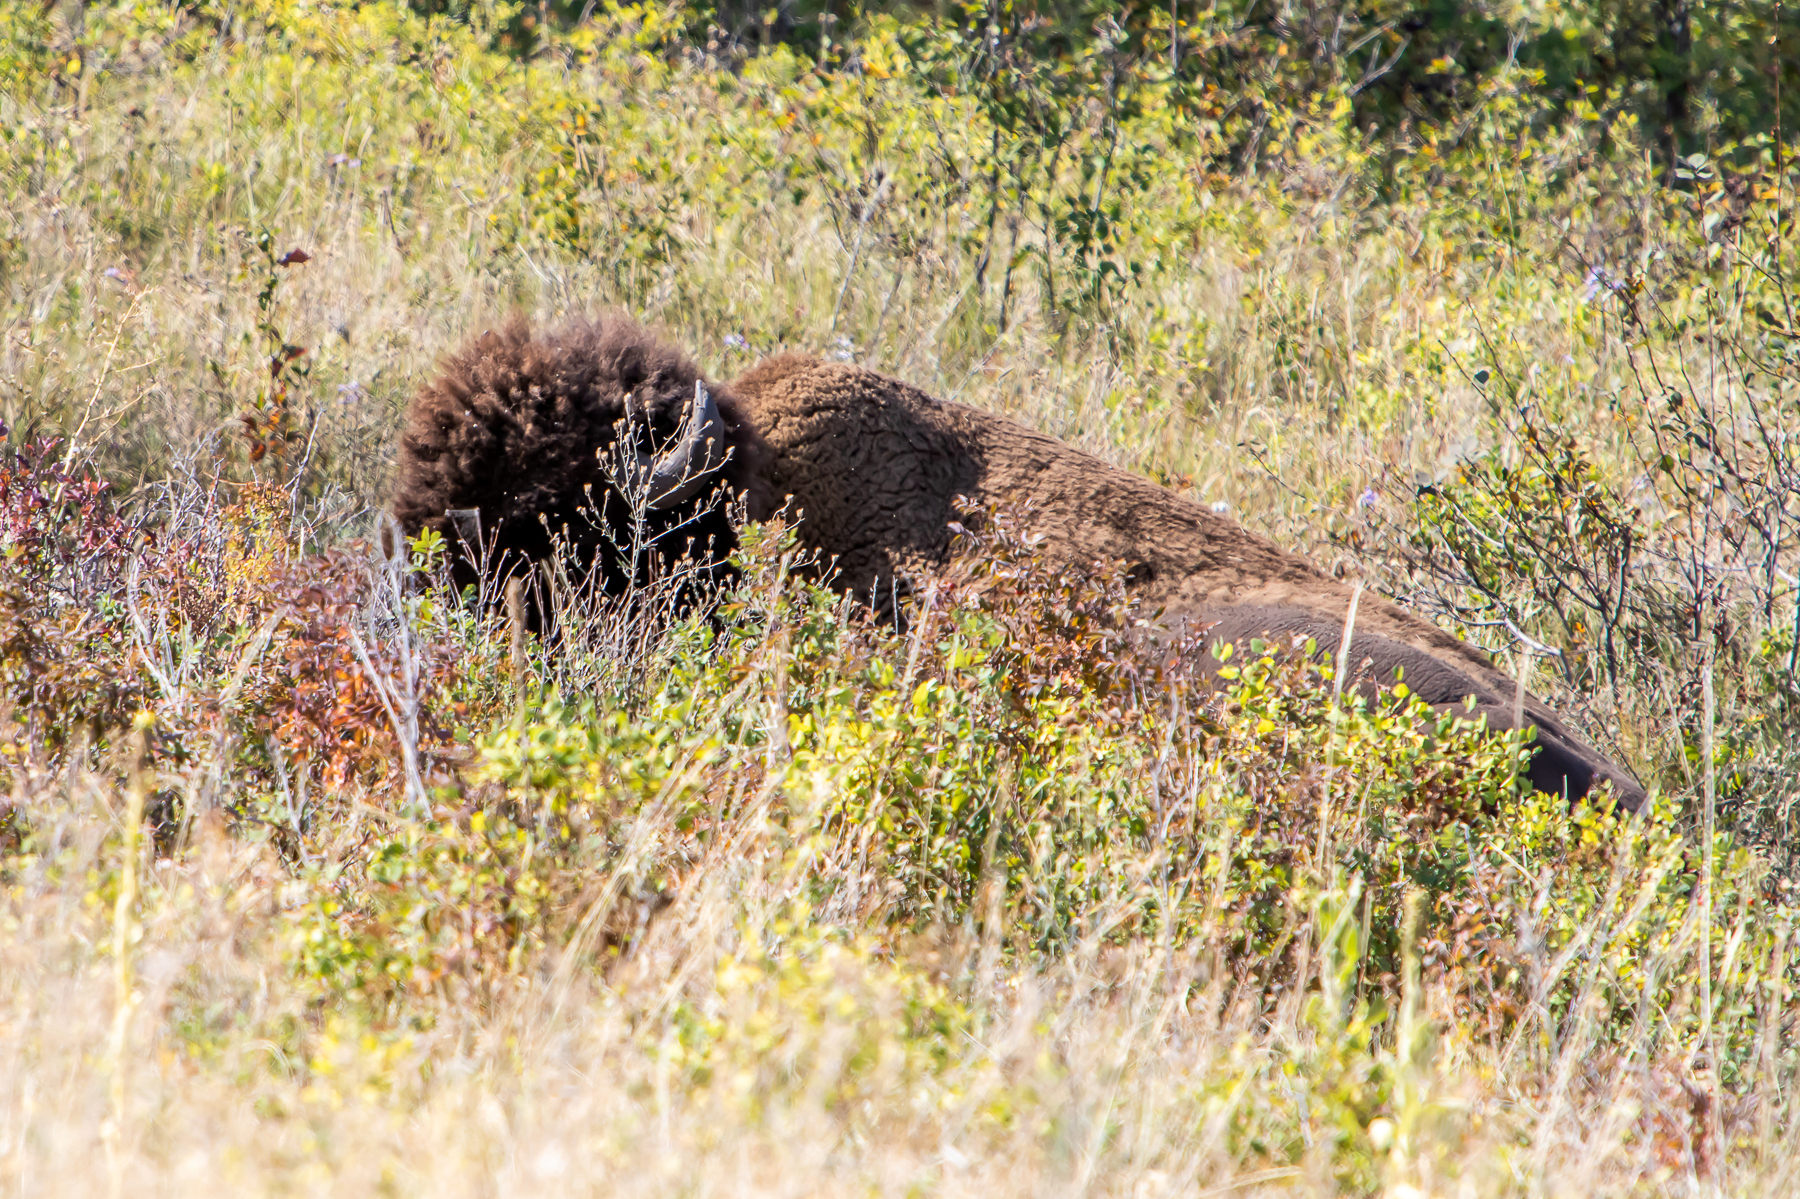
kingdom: Animalia
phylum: Chordata
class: Mammalia
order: Artiodactyla
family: Bovidae
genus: Bison
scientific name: Bison bison
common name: American bison
